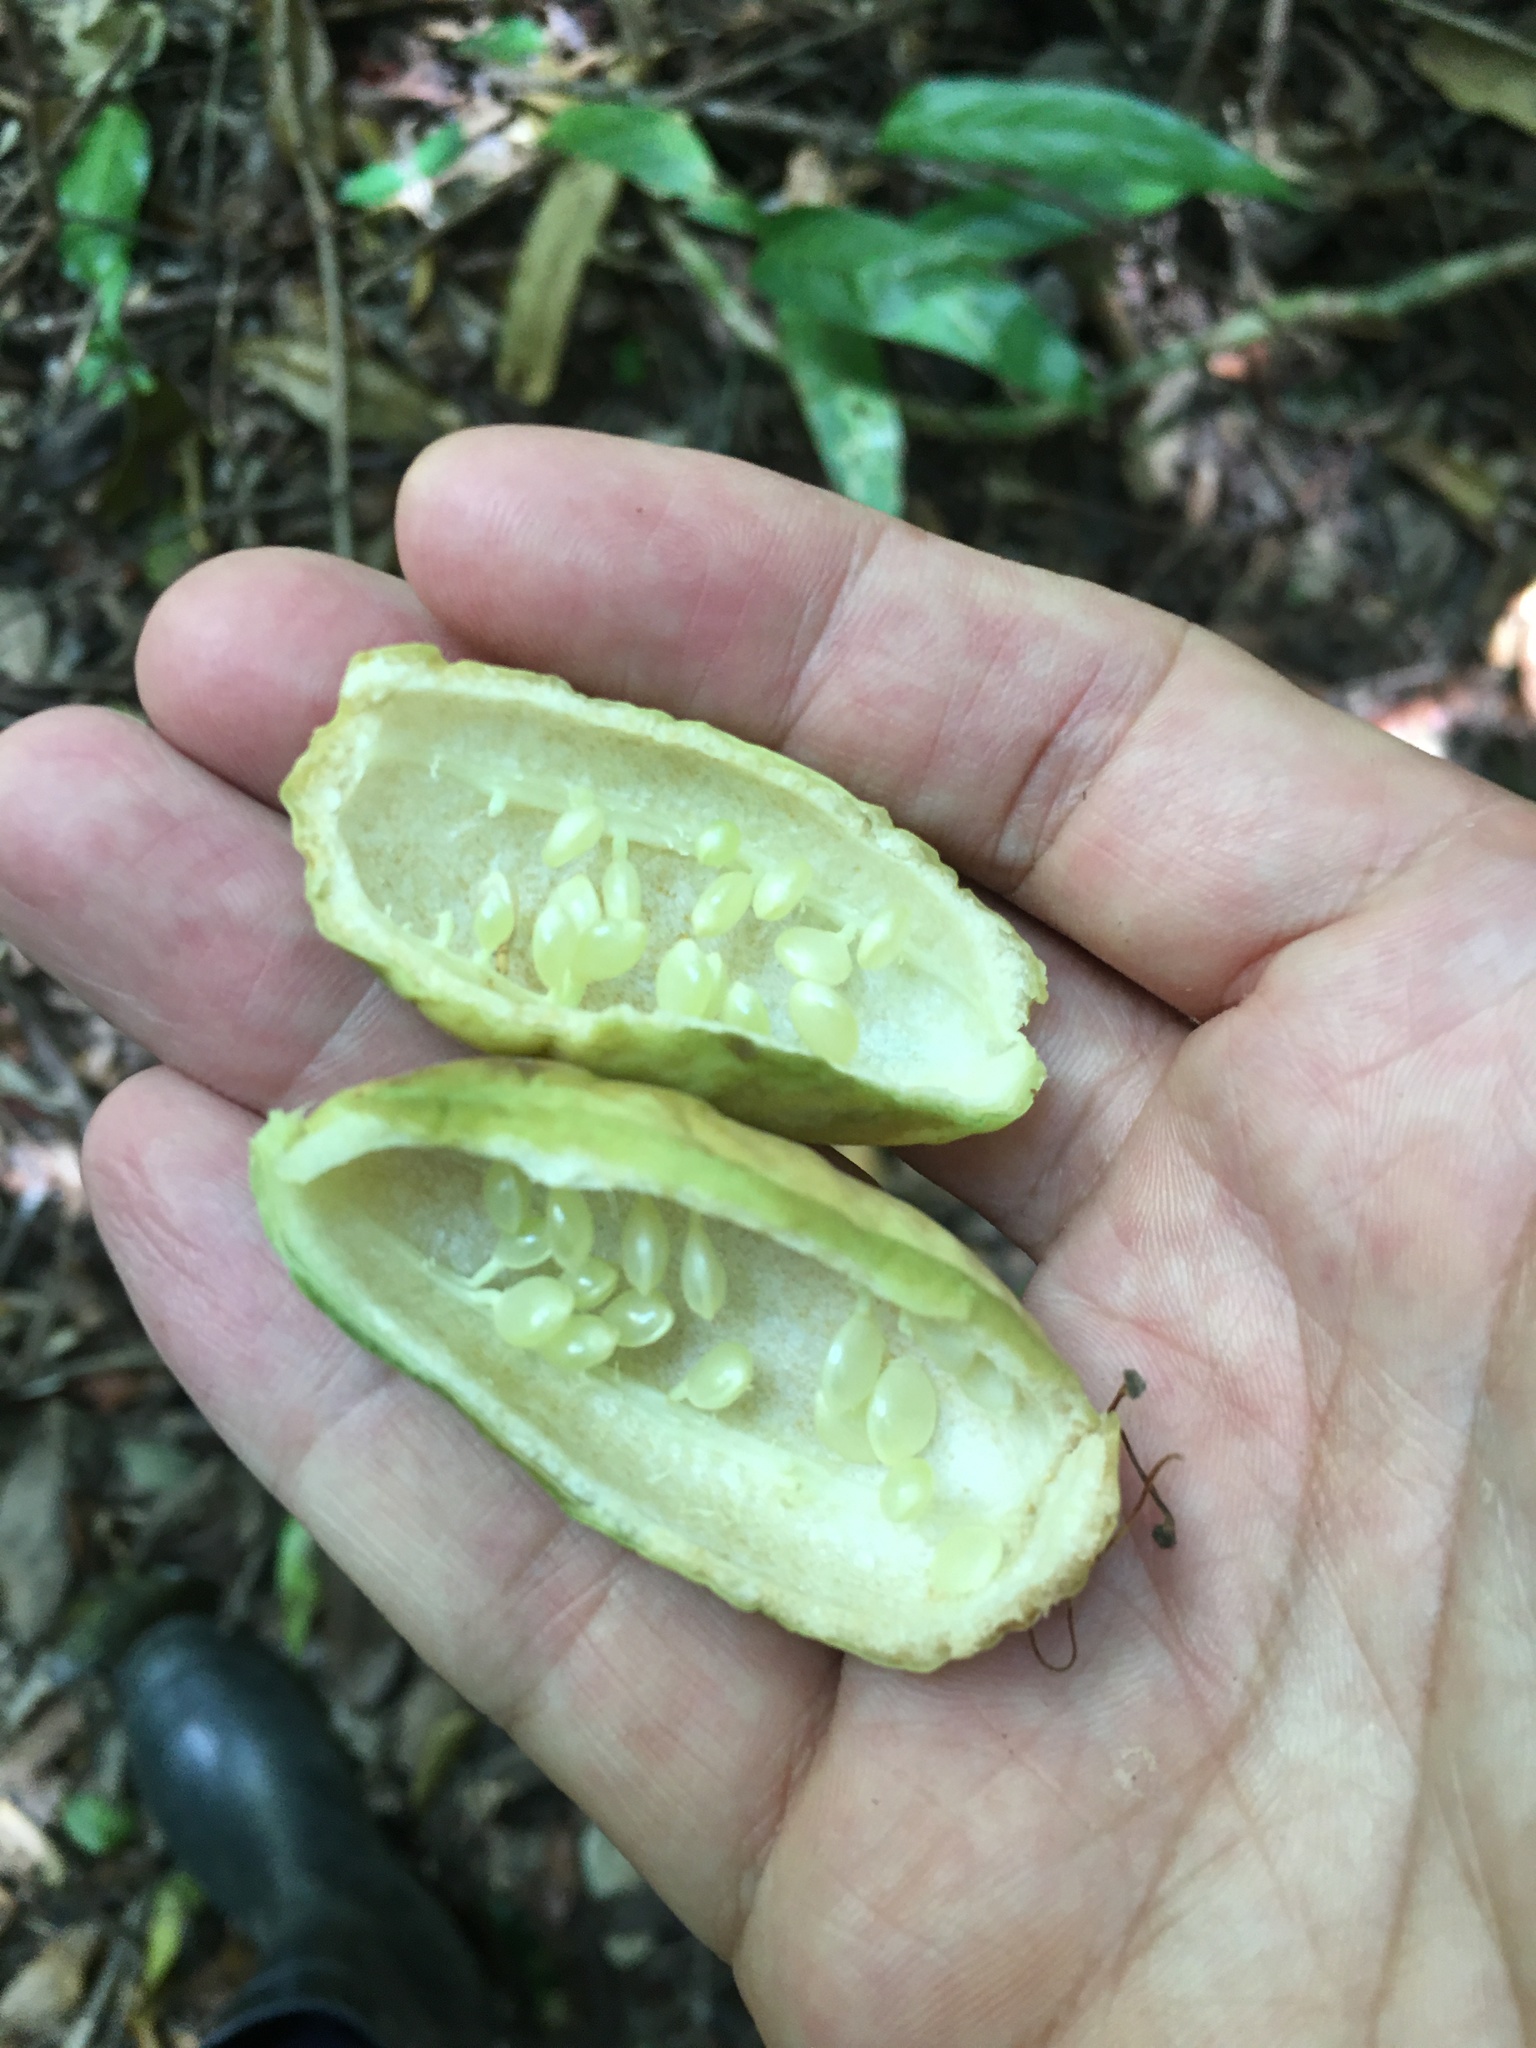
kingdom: Plantae
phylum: Tracheophyta
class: Magnoliopsida
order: Malpighiales
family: Passifloraceae
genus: Passiflora
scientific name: Passiflora contracta
